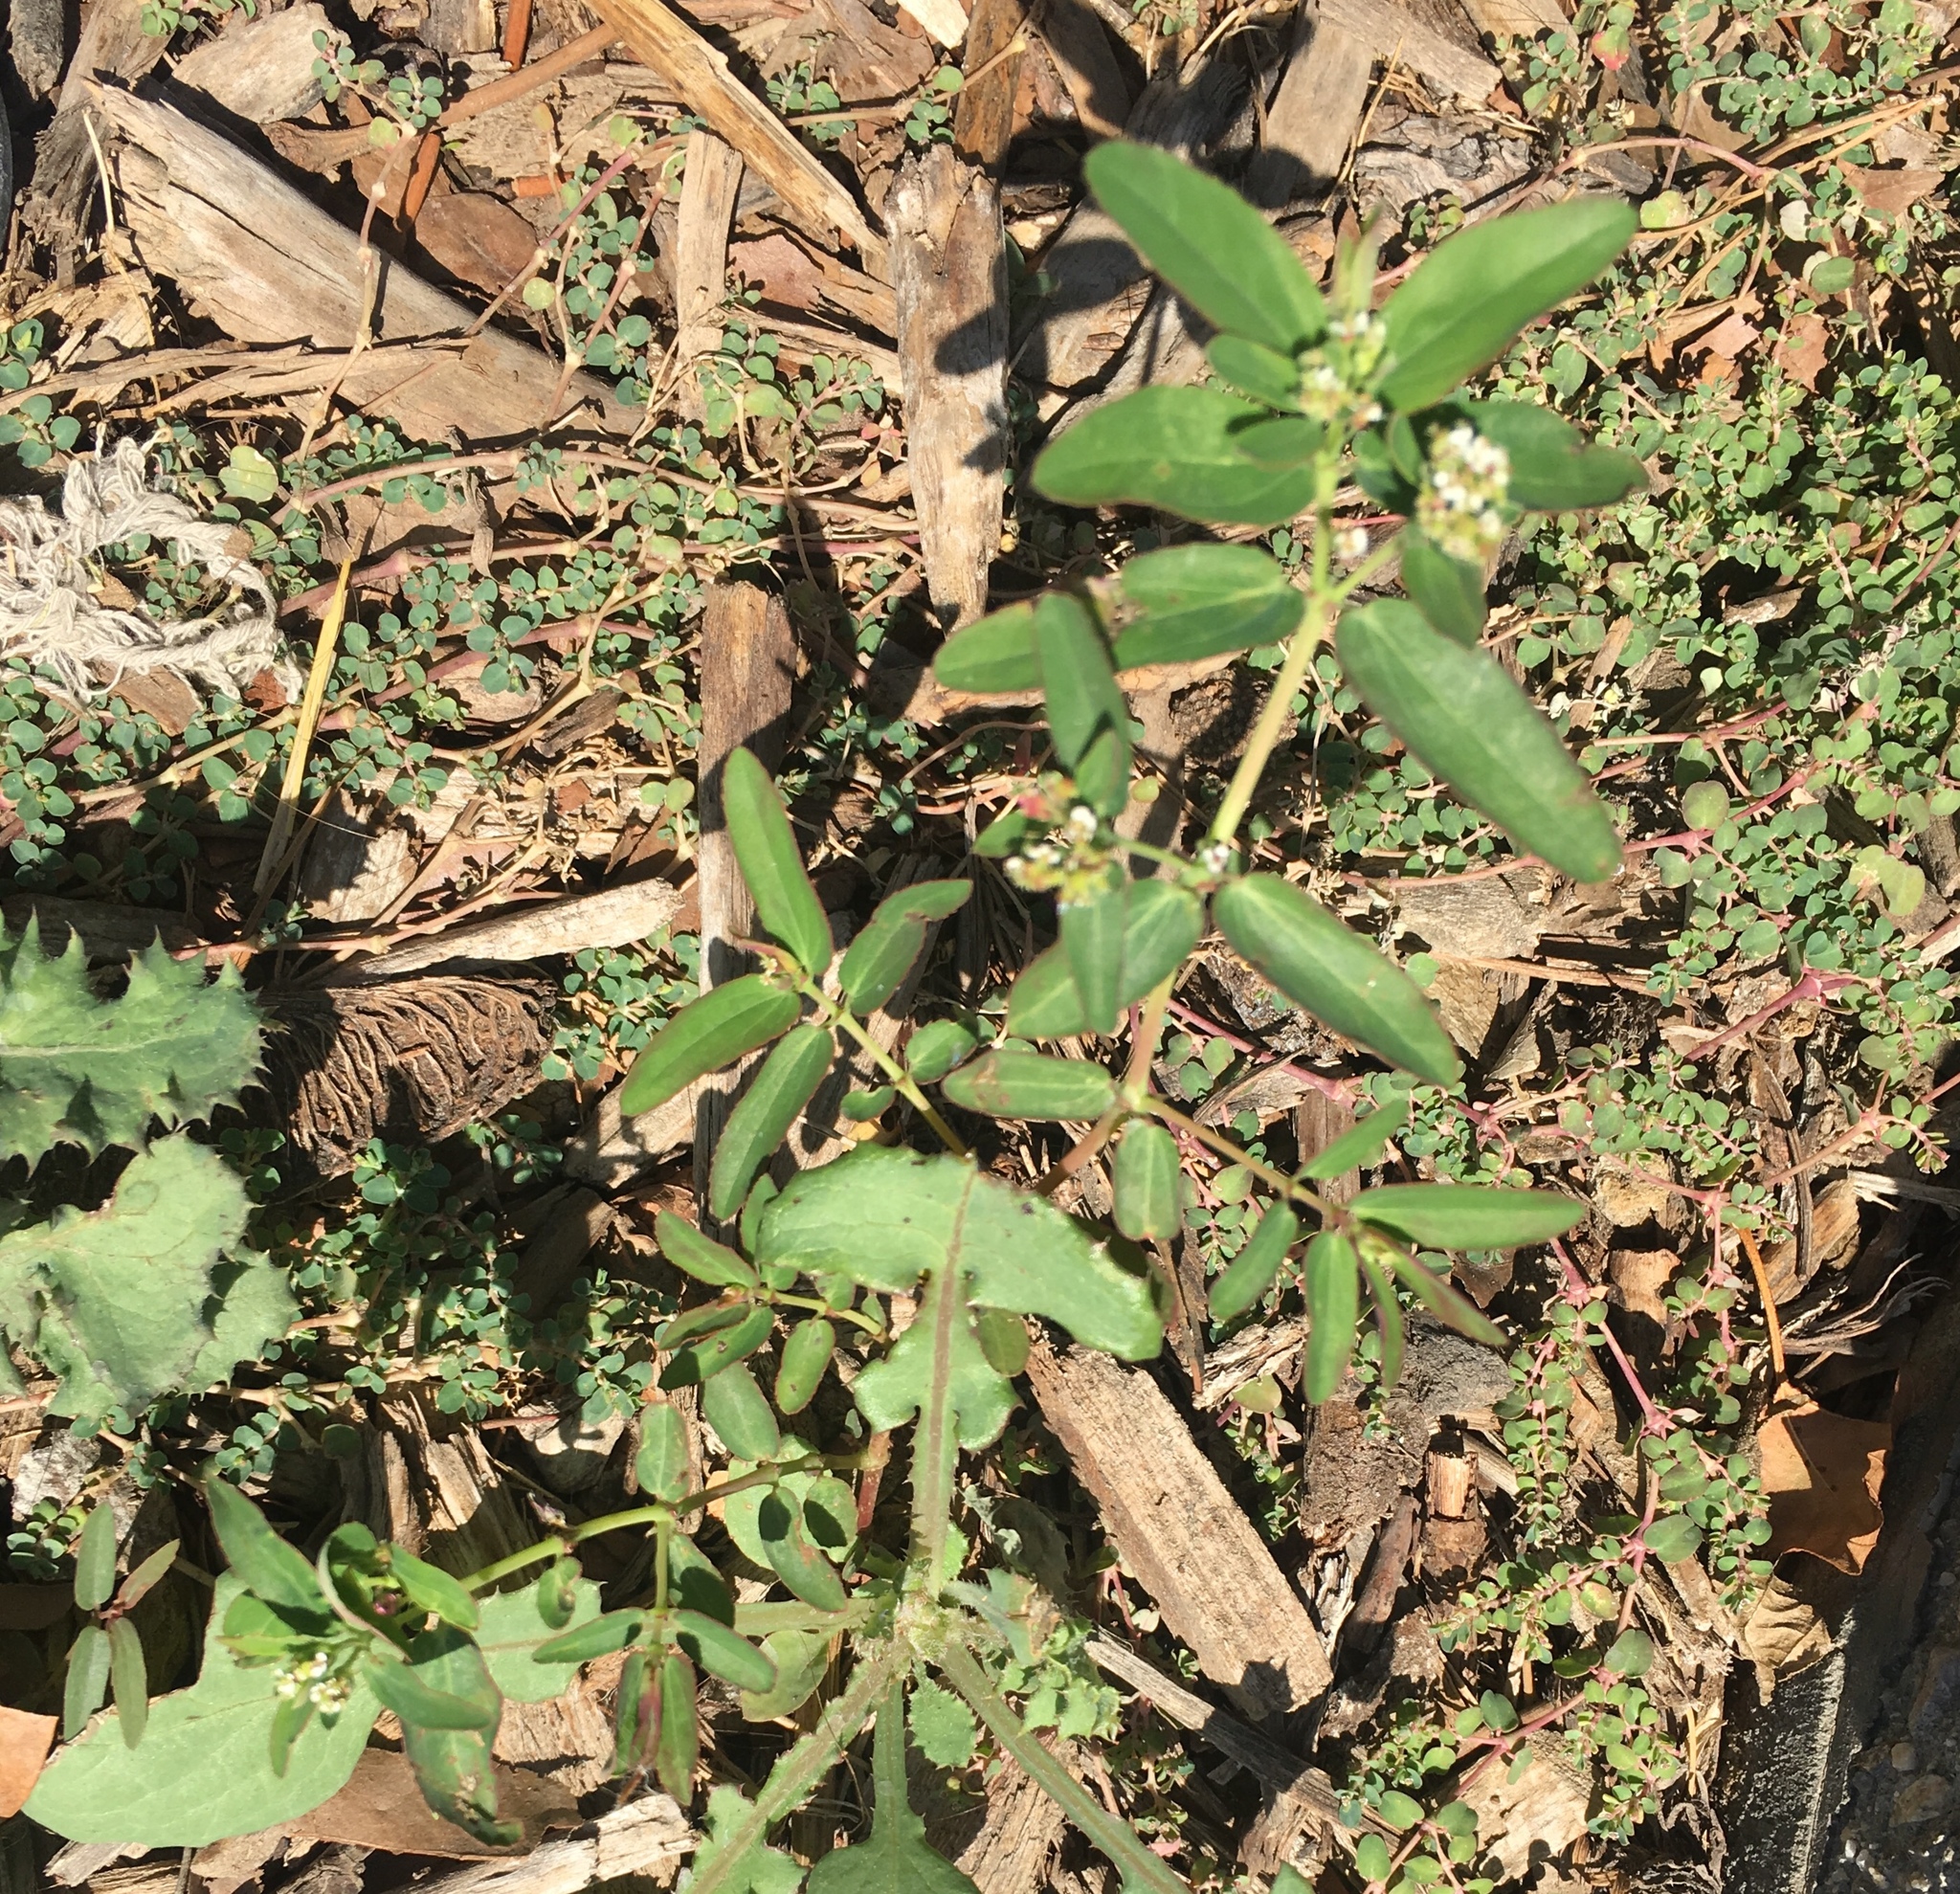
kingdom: Plantae
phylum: Tracheophyta
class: Magnoliopsida
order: Malpighiales
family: Euphorbiaceae
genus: Euphorbia
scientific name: Euphorbia hypericifolia
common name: Graceful sandmat
